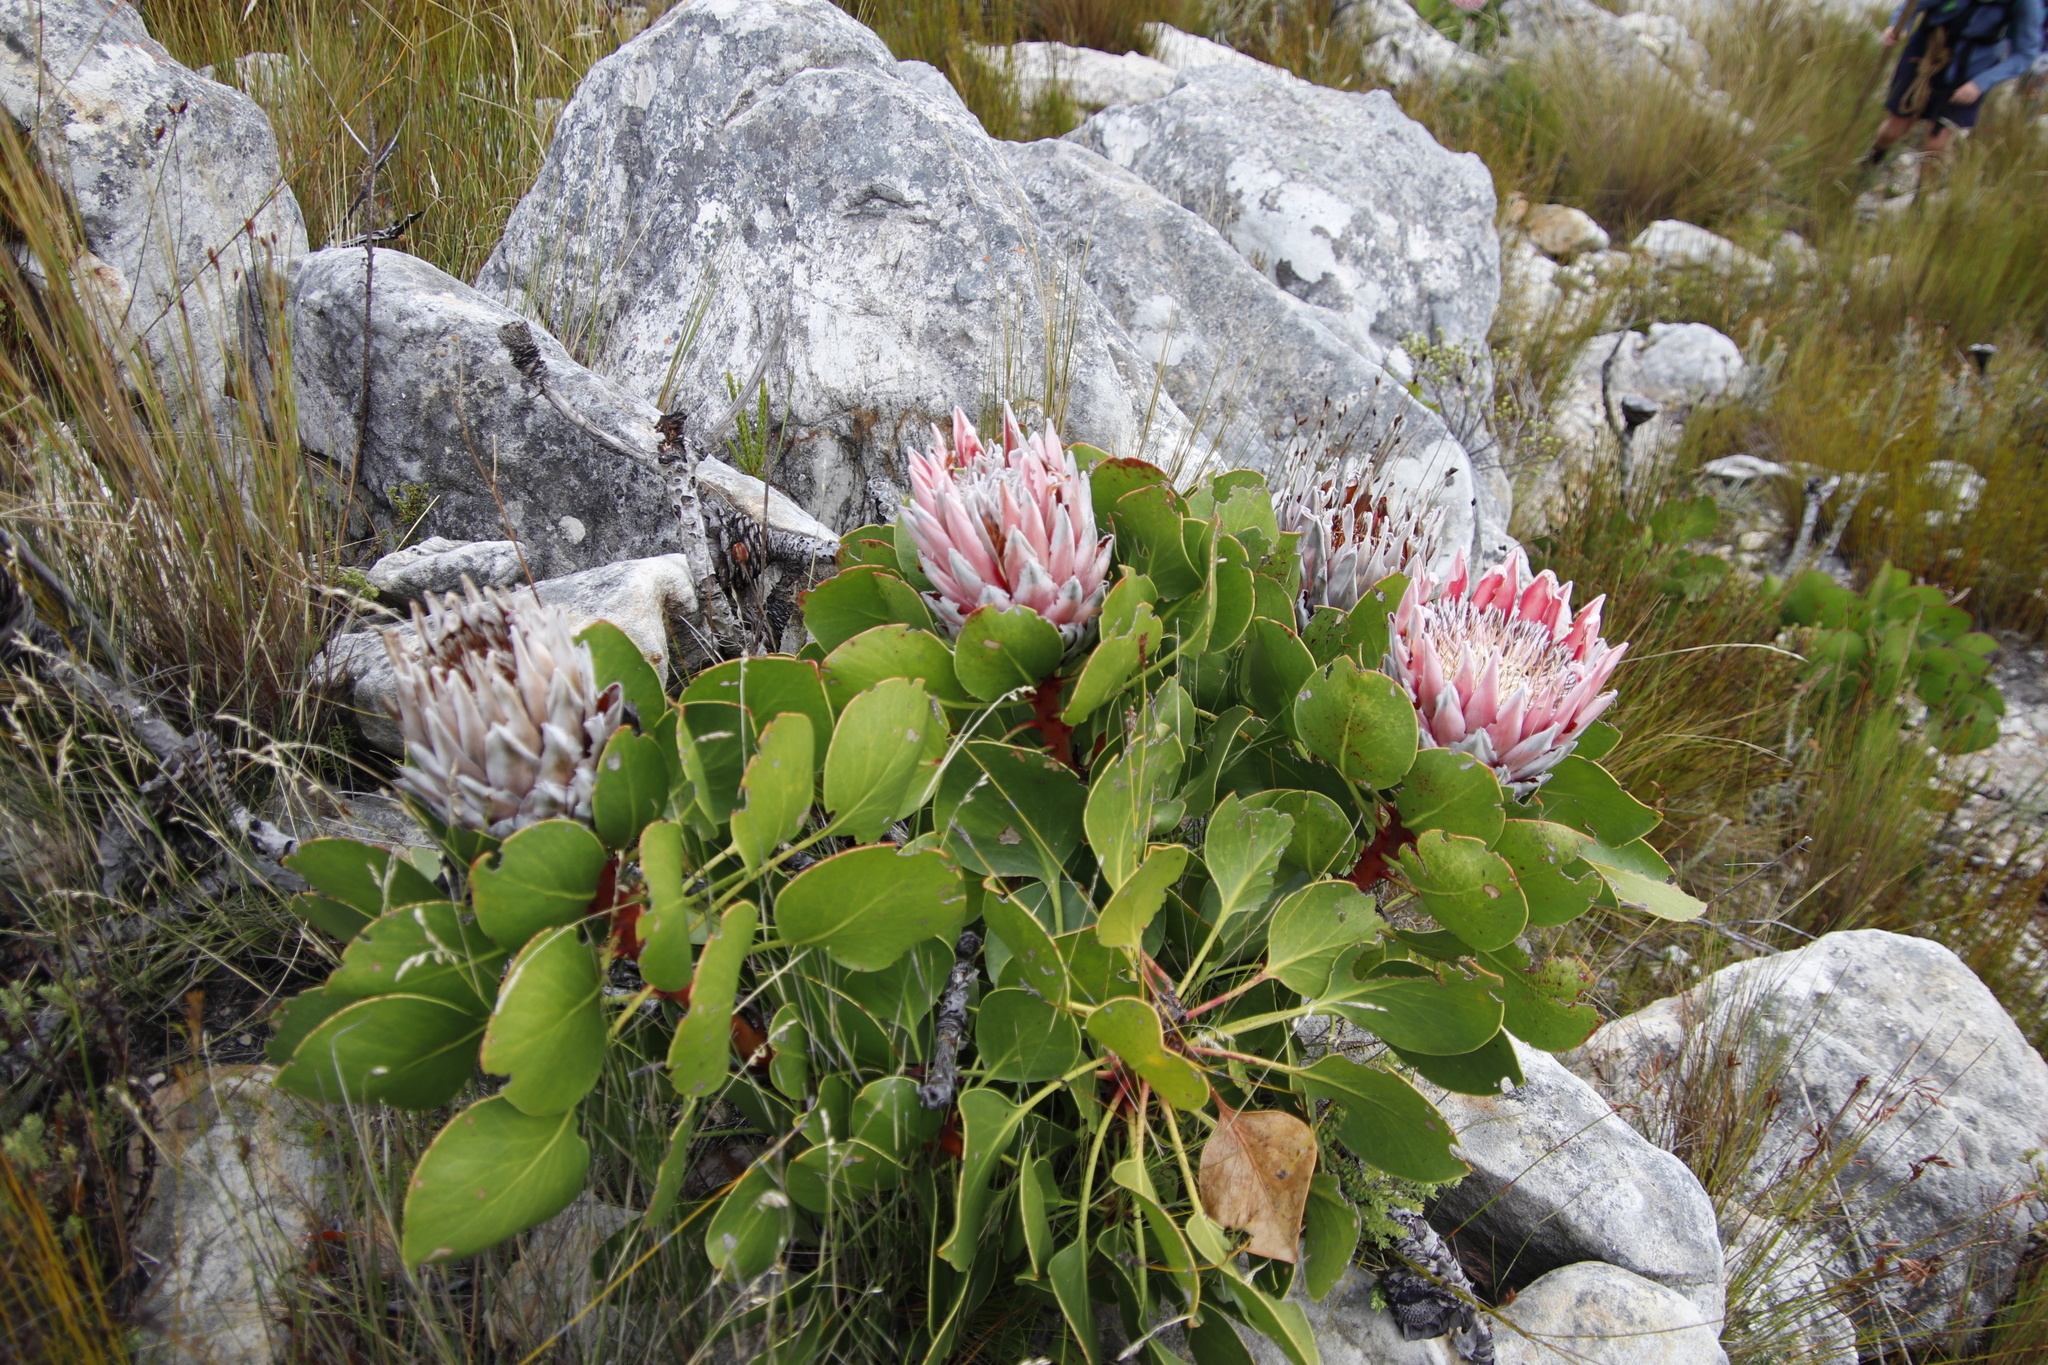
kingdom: Plantae
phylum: Tracheophyta
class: Magnoliopsida
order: Proteales
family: Proteaceae
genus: Protea
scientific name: Protea cynaroides
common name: King protea
